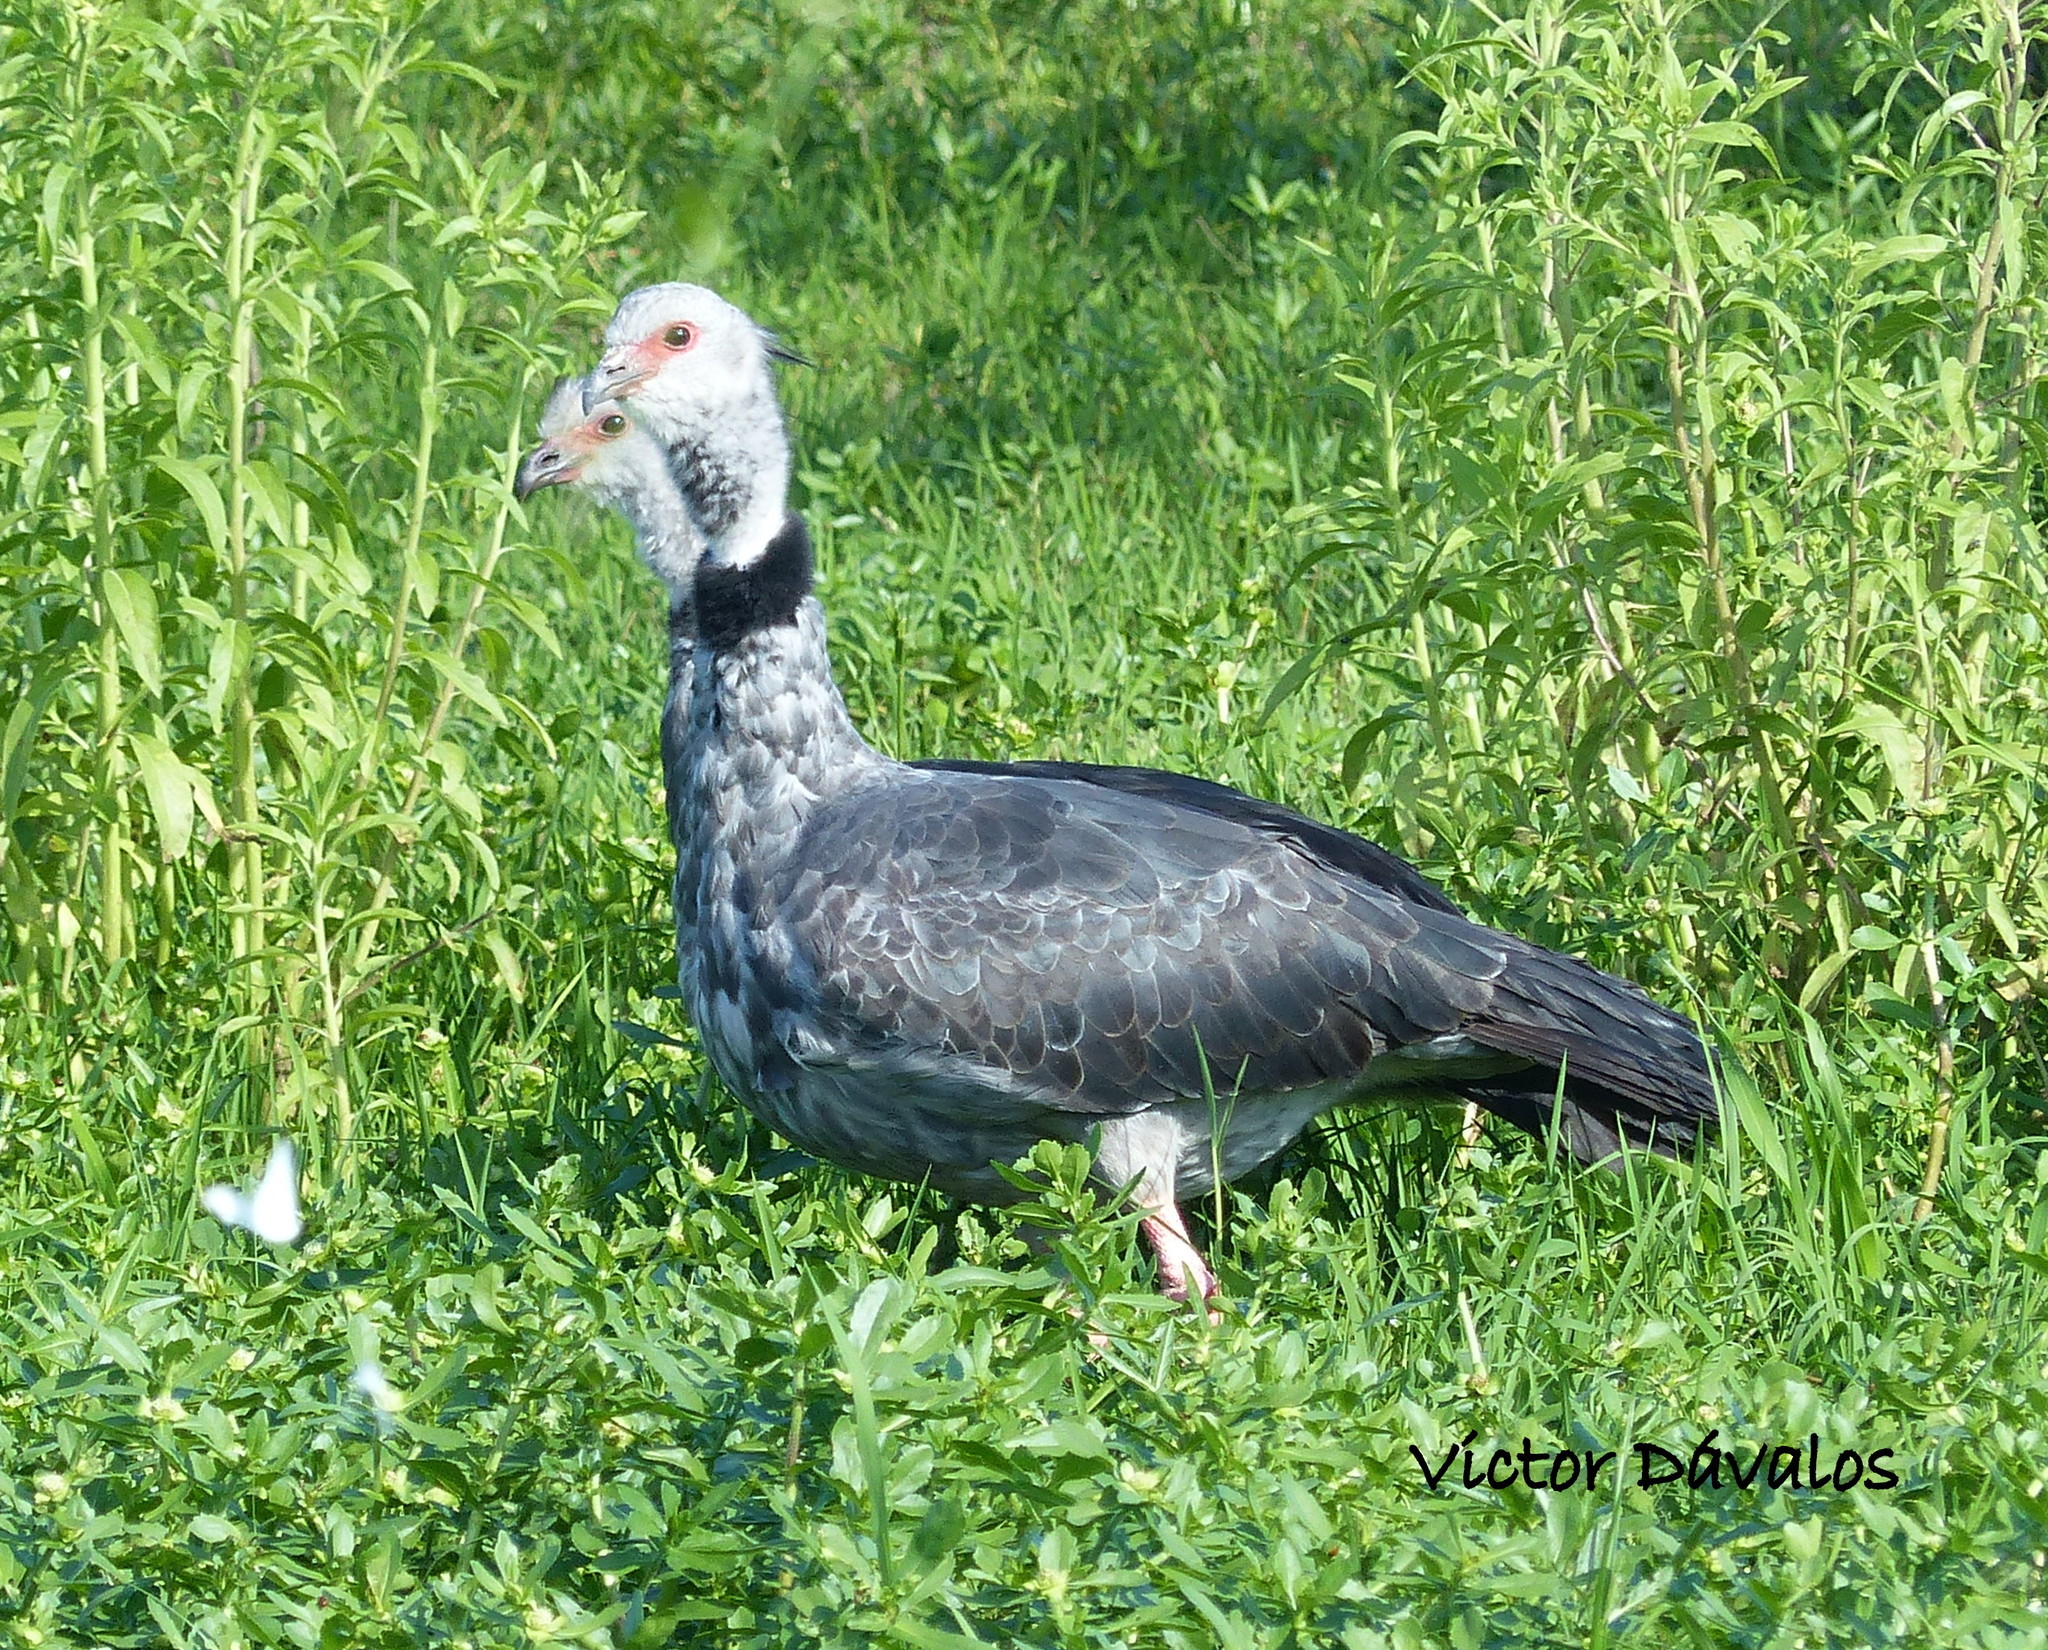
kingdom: Animalia
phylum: Chordata
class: Aves
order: Anseriformes
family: Anhimidae
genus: Chauna
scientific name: Chauna torquata
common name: Southern screamer
